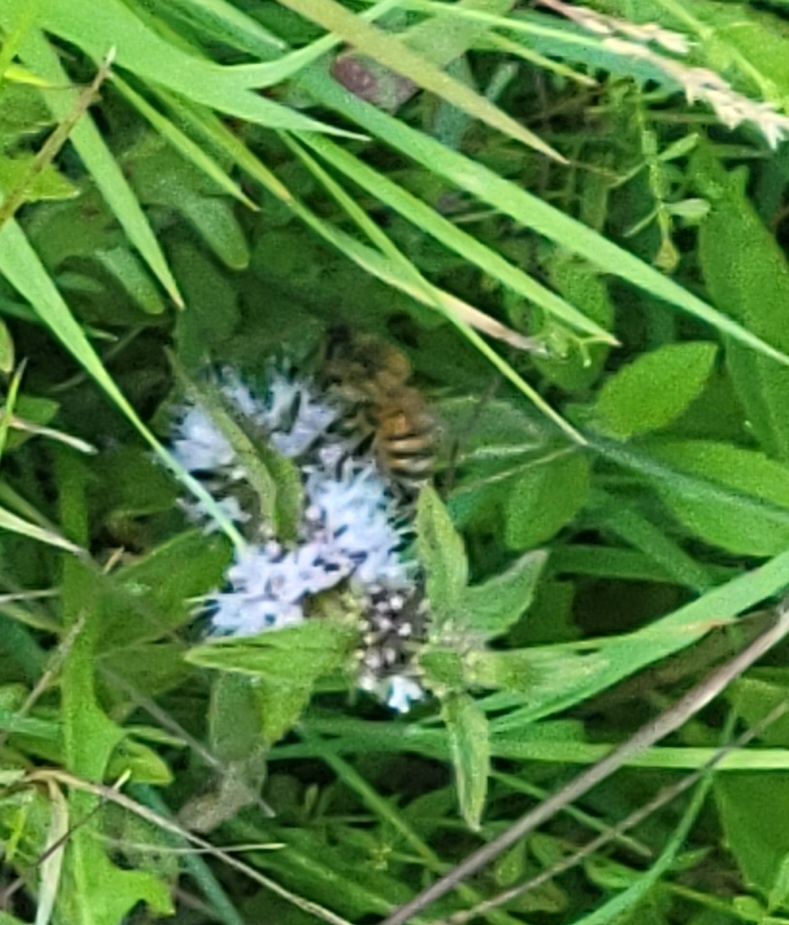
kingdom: Animalia
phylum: Arthropoda
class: Insecta
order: Hymenoptera
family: Apidae
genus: Apis
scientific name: Apis mellifera
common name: Honey bee
